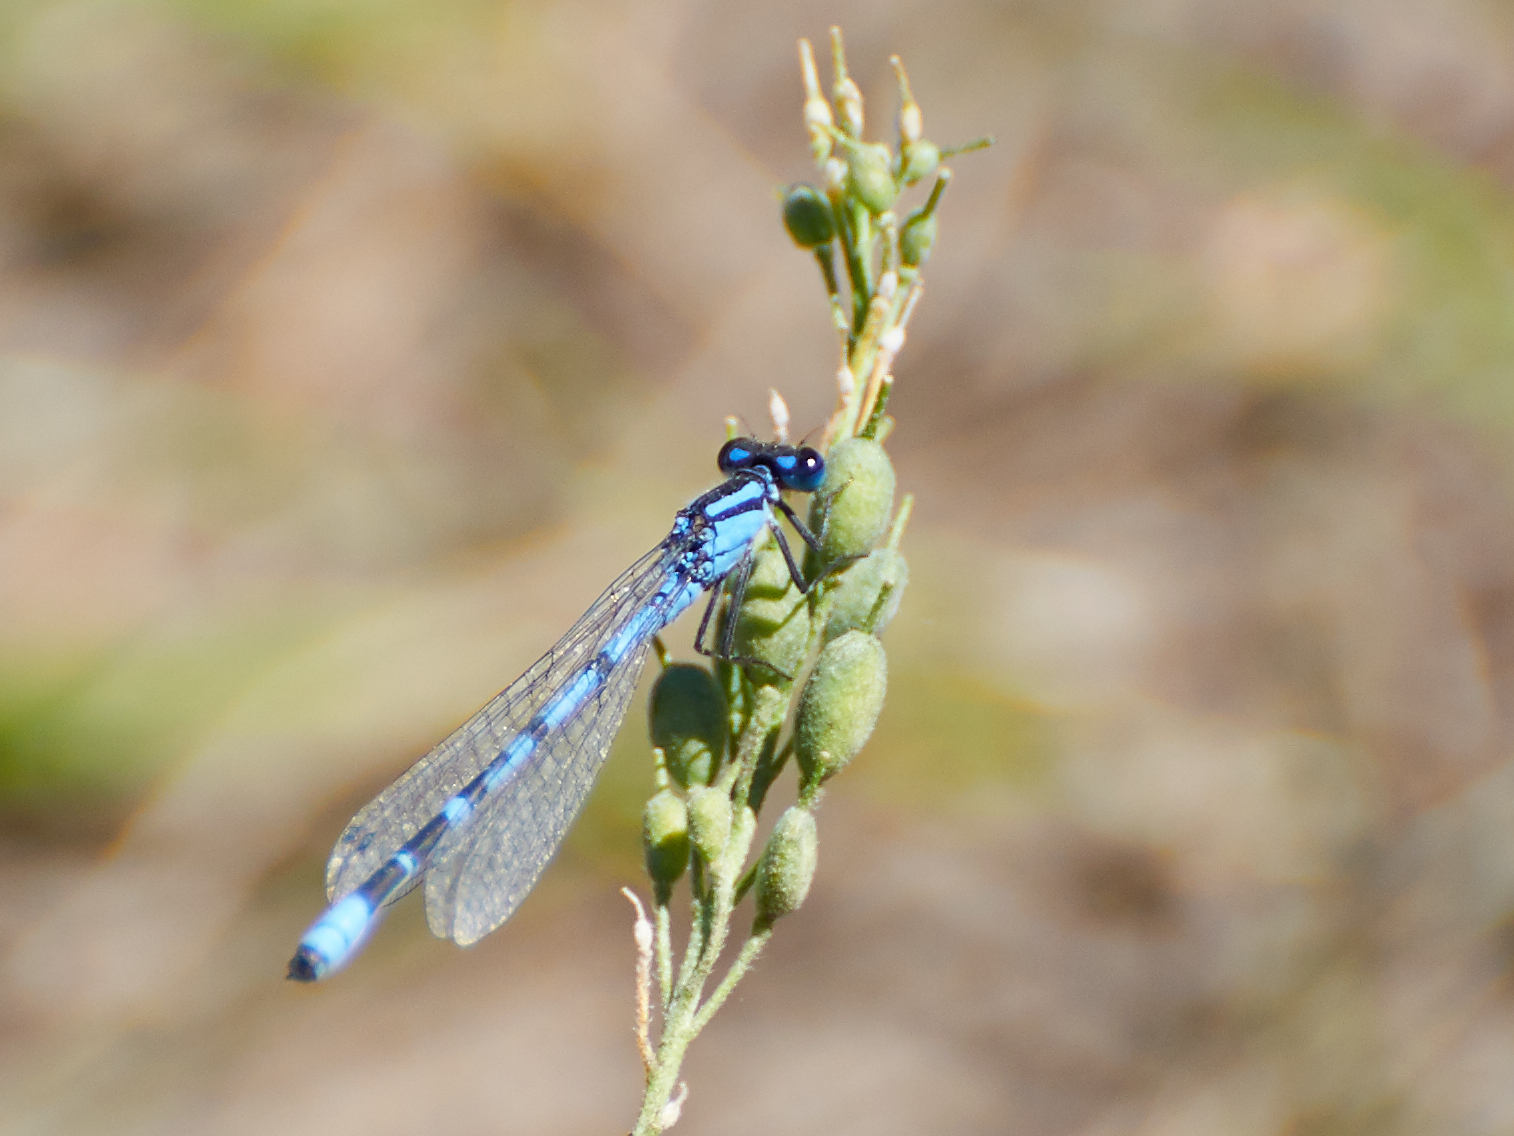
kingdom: Animalia
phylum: Arthropoda
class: Insecta
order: Odonata
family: Coenagrionidae
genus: Enallagma
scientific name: Enallagma cyathigerum
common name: Common blue damselfly
